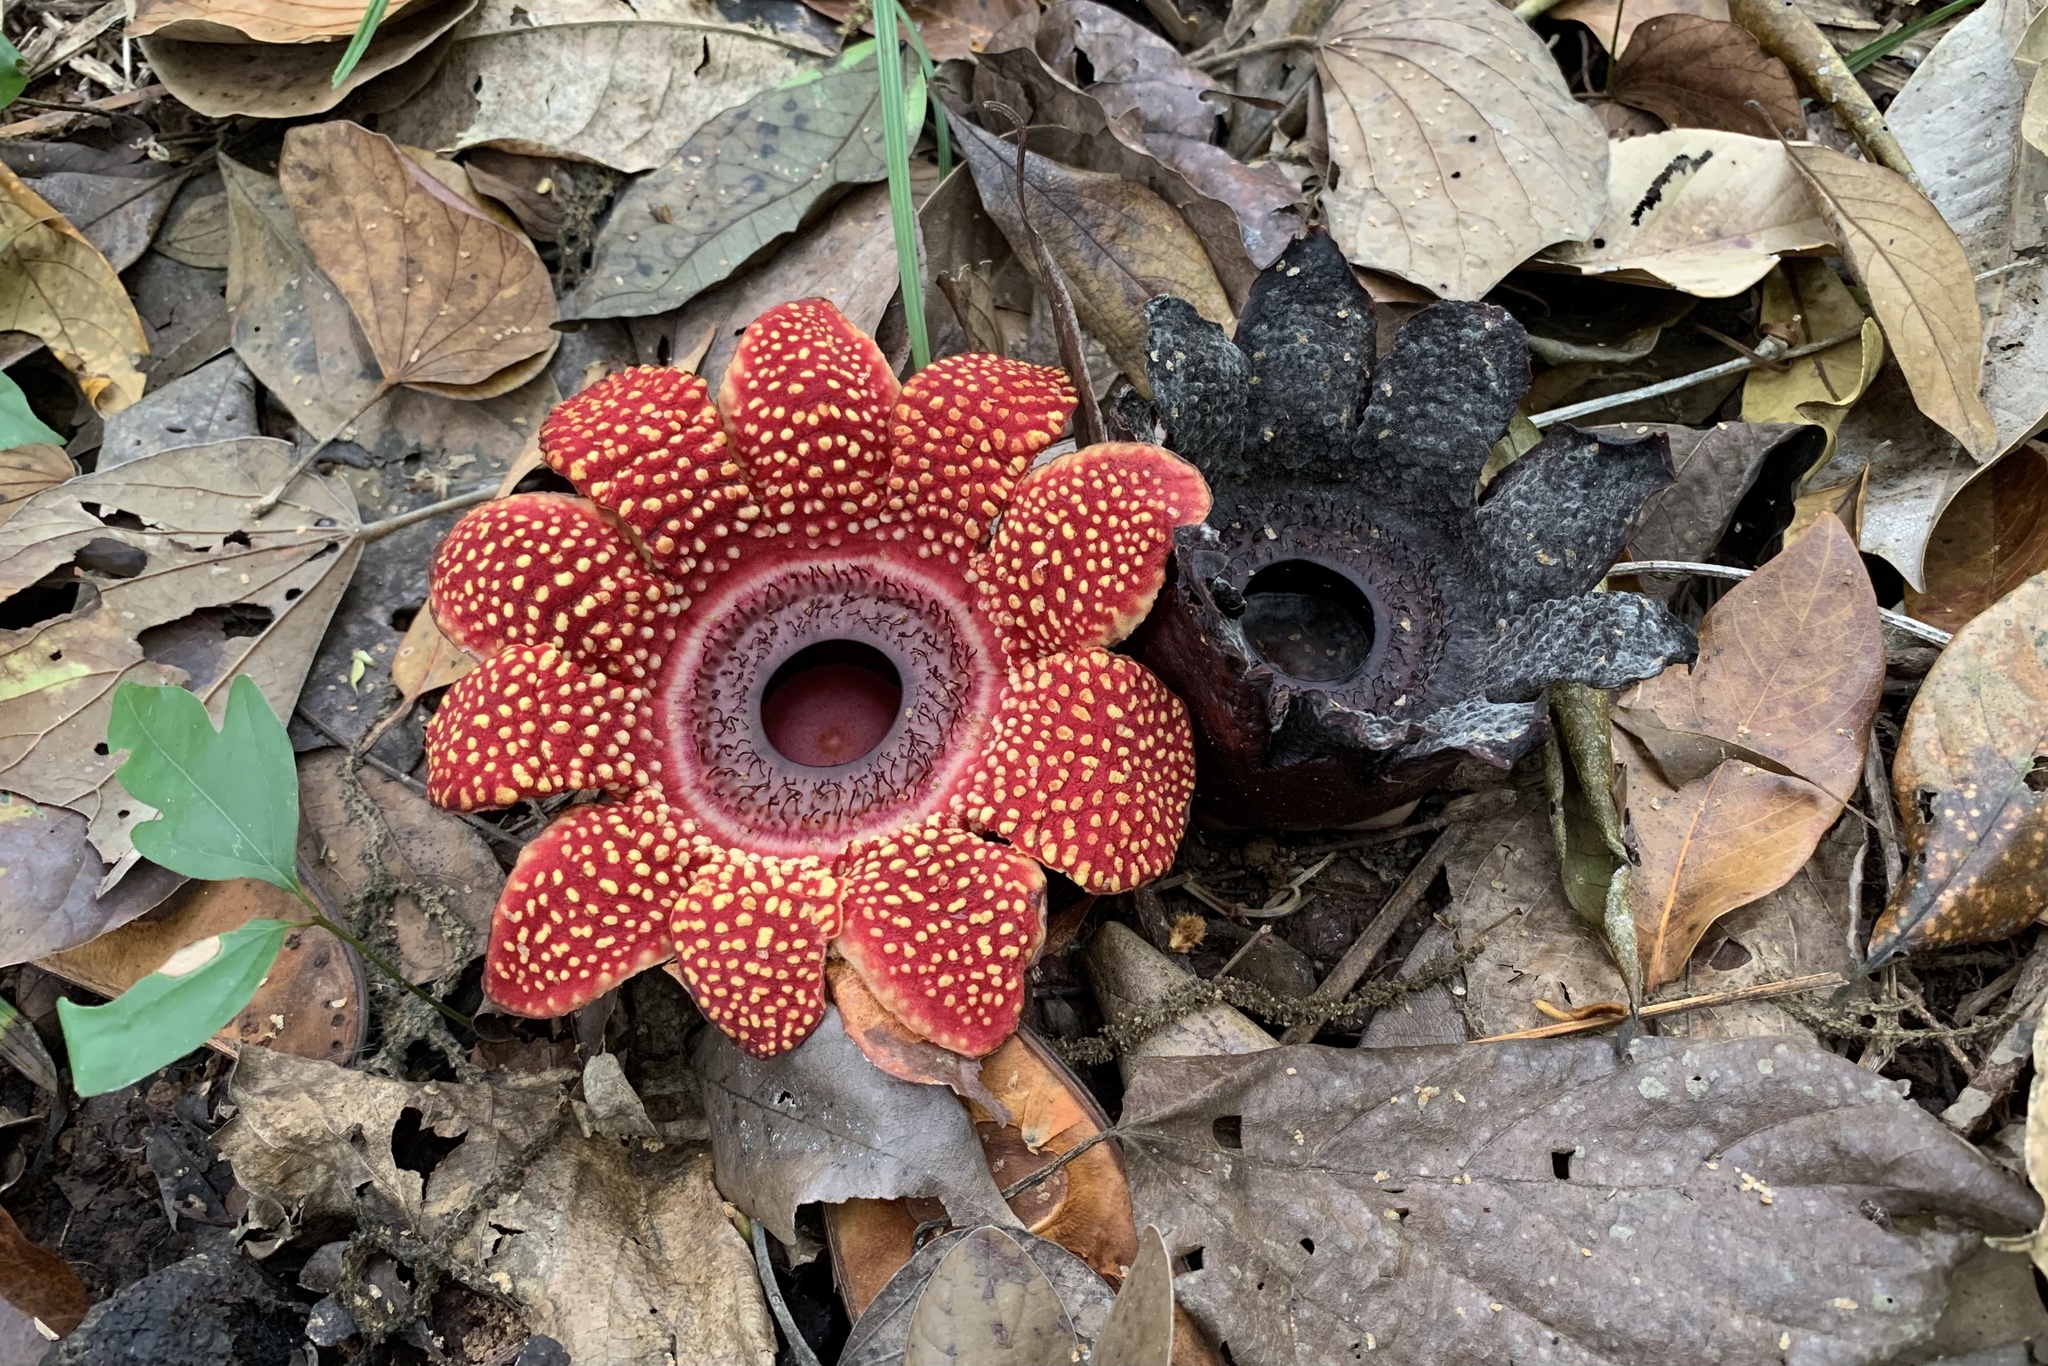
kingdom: Plantae
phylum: Tracheophyta
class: Magnoliopsida
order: Malpighiales
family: Rafflesiaceae
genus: Sapria
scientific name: Sapria himalayana
